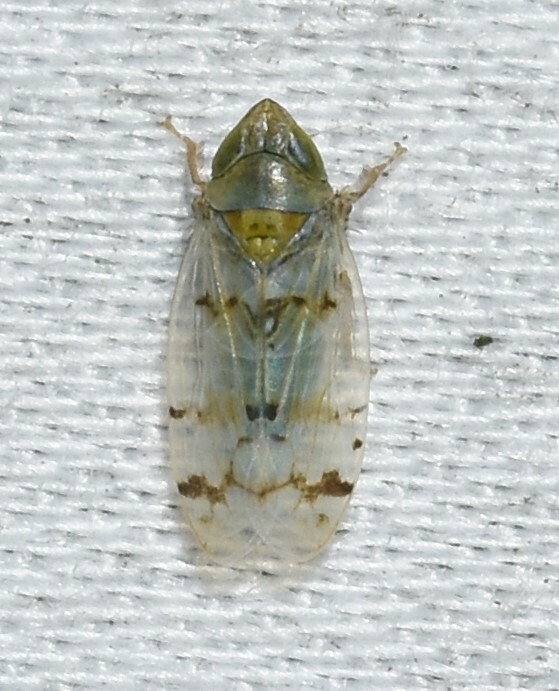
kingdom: Animalia
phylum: Arthropoda
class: Insecta
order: Hemiptera
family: Cicadellidae
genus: Japananus
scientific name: Japananus hyalinus
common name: The japanese maple leafhopper
